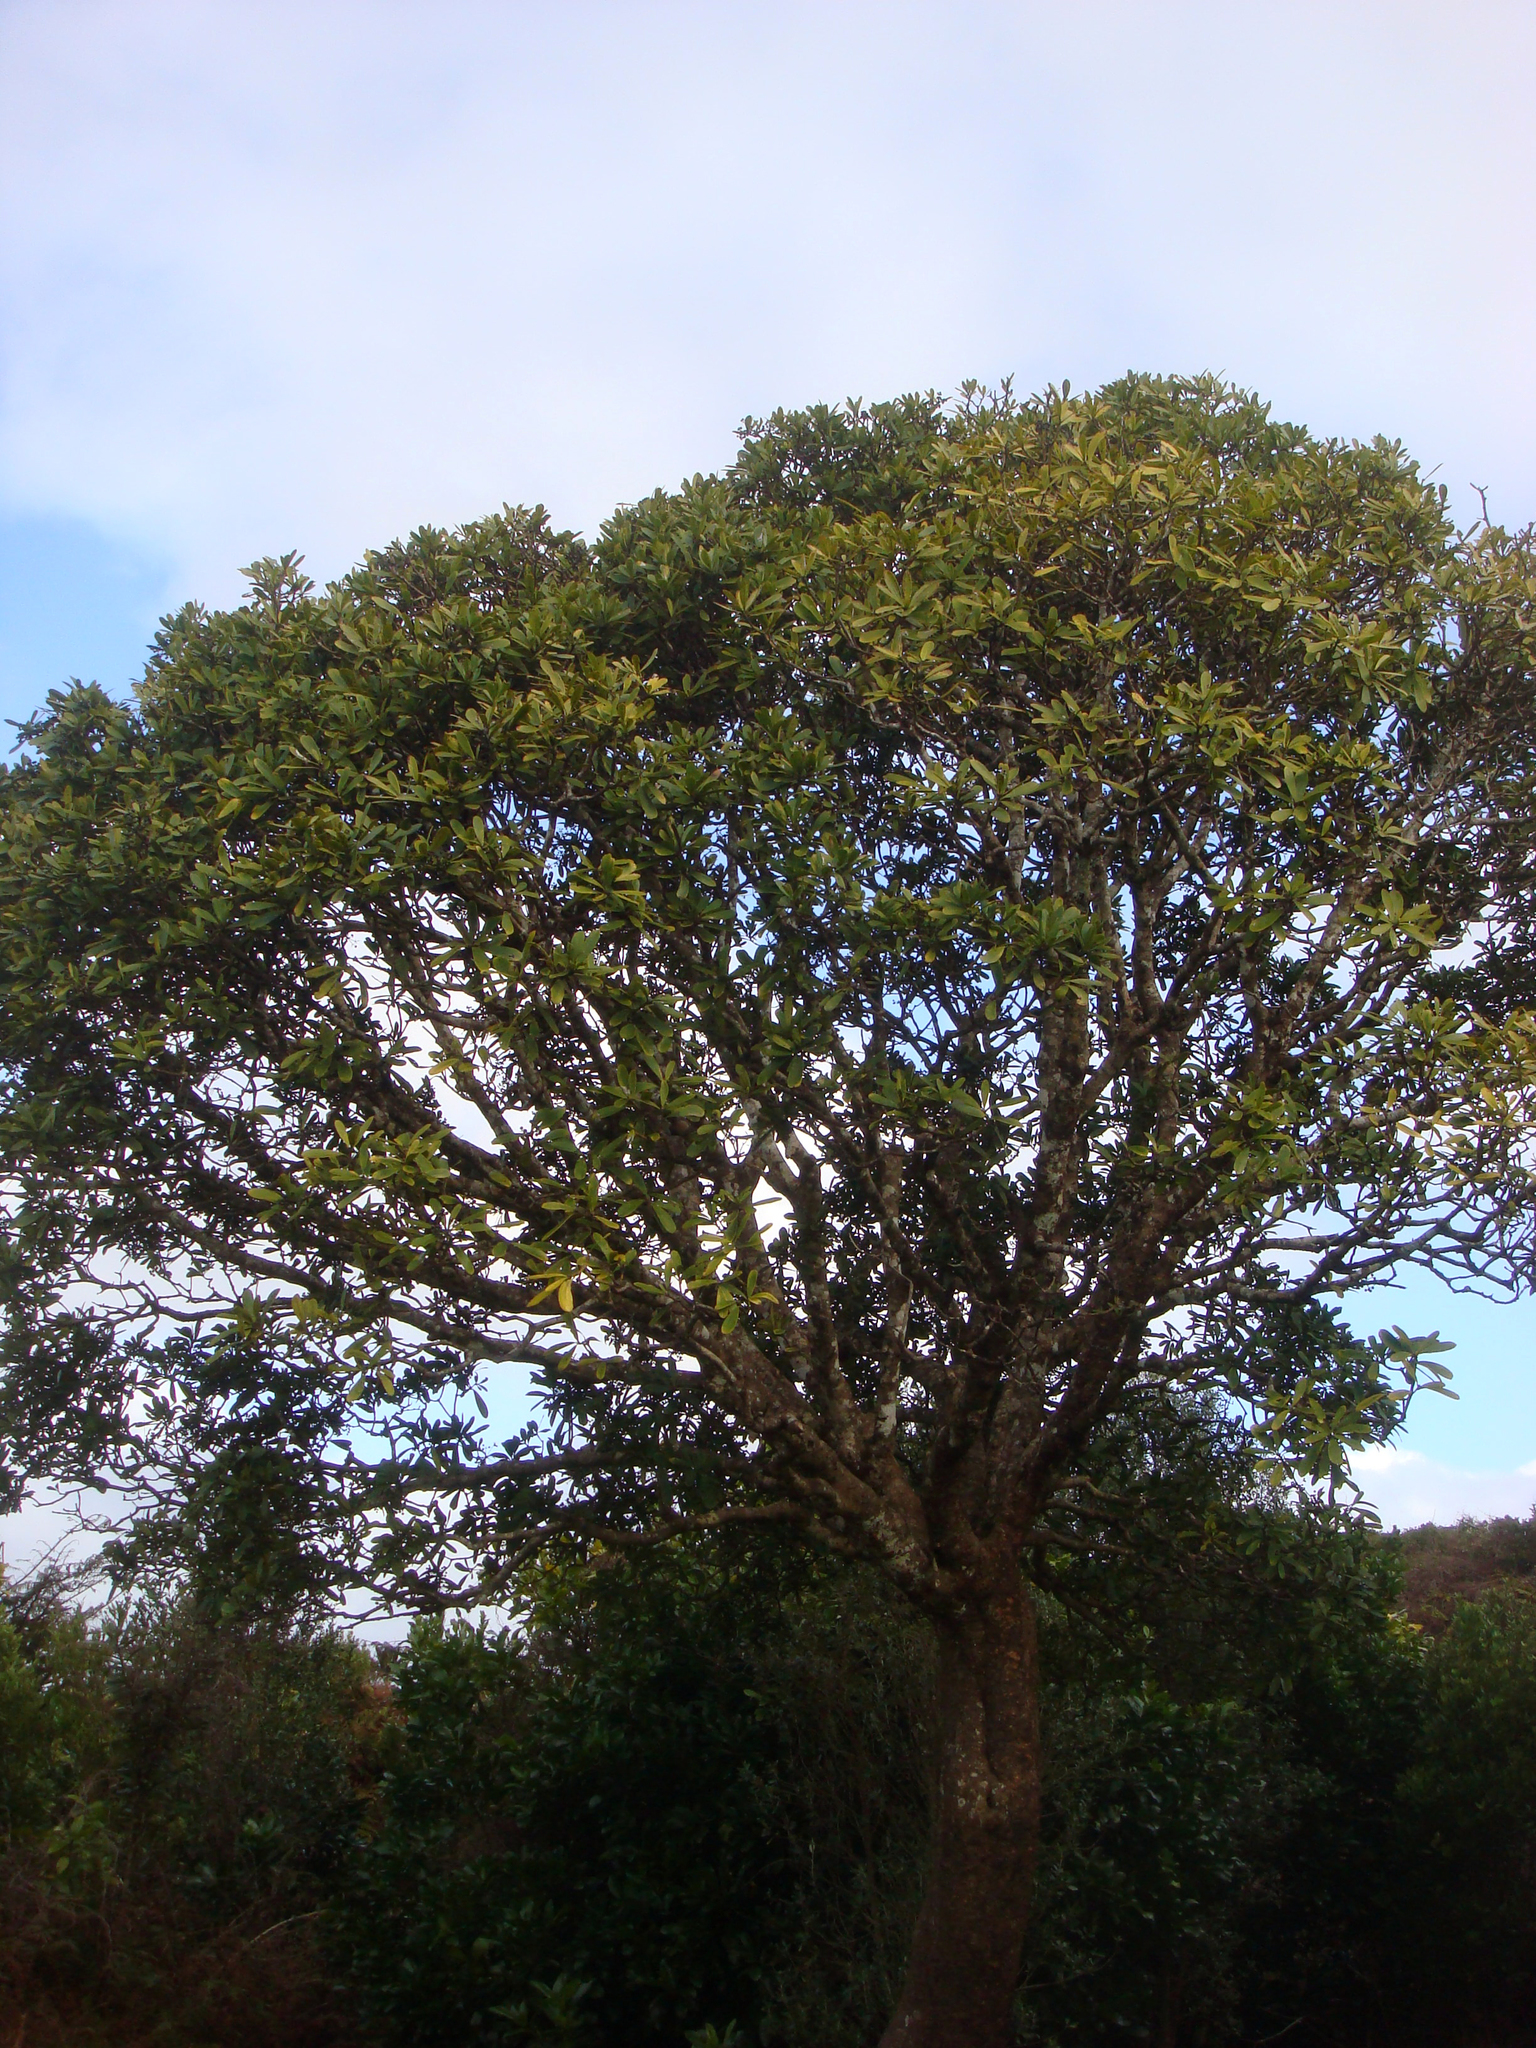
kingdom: Plantae
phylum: Tracheophyta
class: Magnoliopsida
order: Apiales
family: Araliaceae
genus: Pseudopanax
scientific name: Pseudopanax chathamicus
